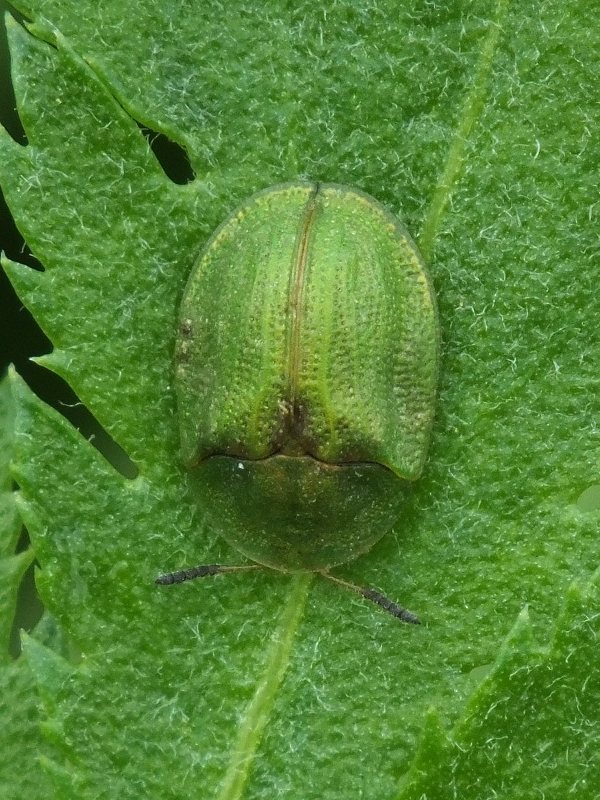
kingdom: Animalia
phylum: Arthropoda
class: Insecta
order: Coleoptera
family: Chrysomelidae
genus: Cassida
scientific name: Cassida stigmatica
